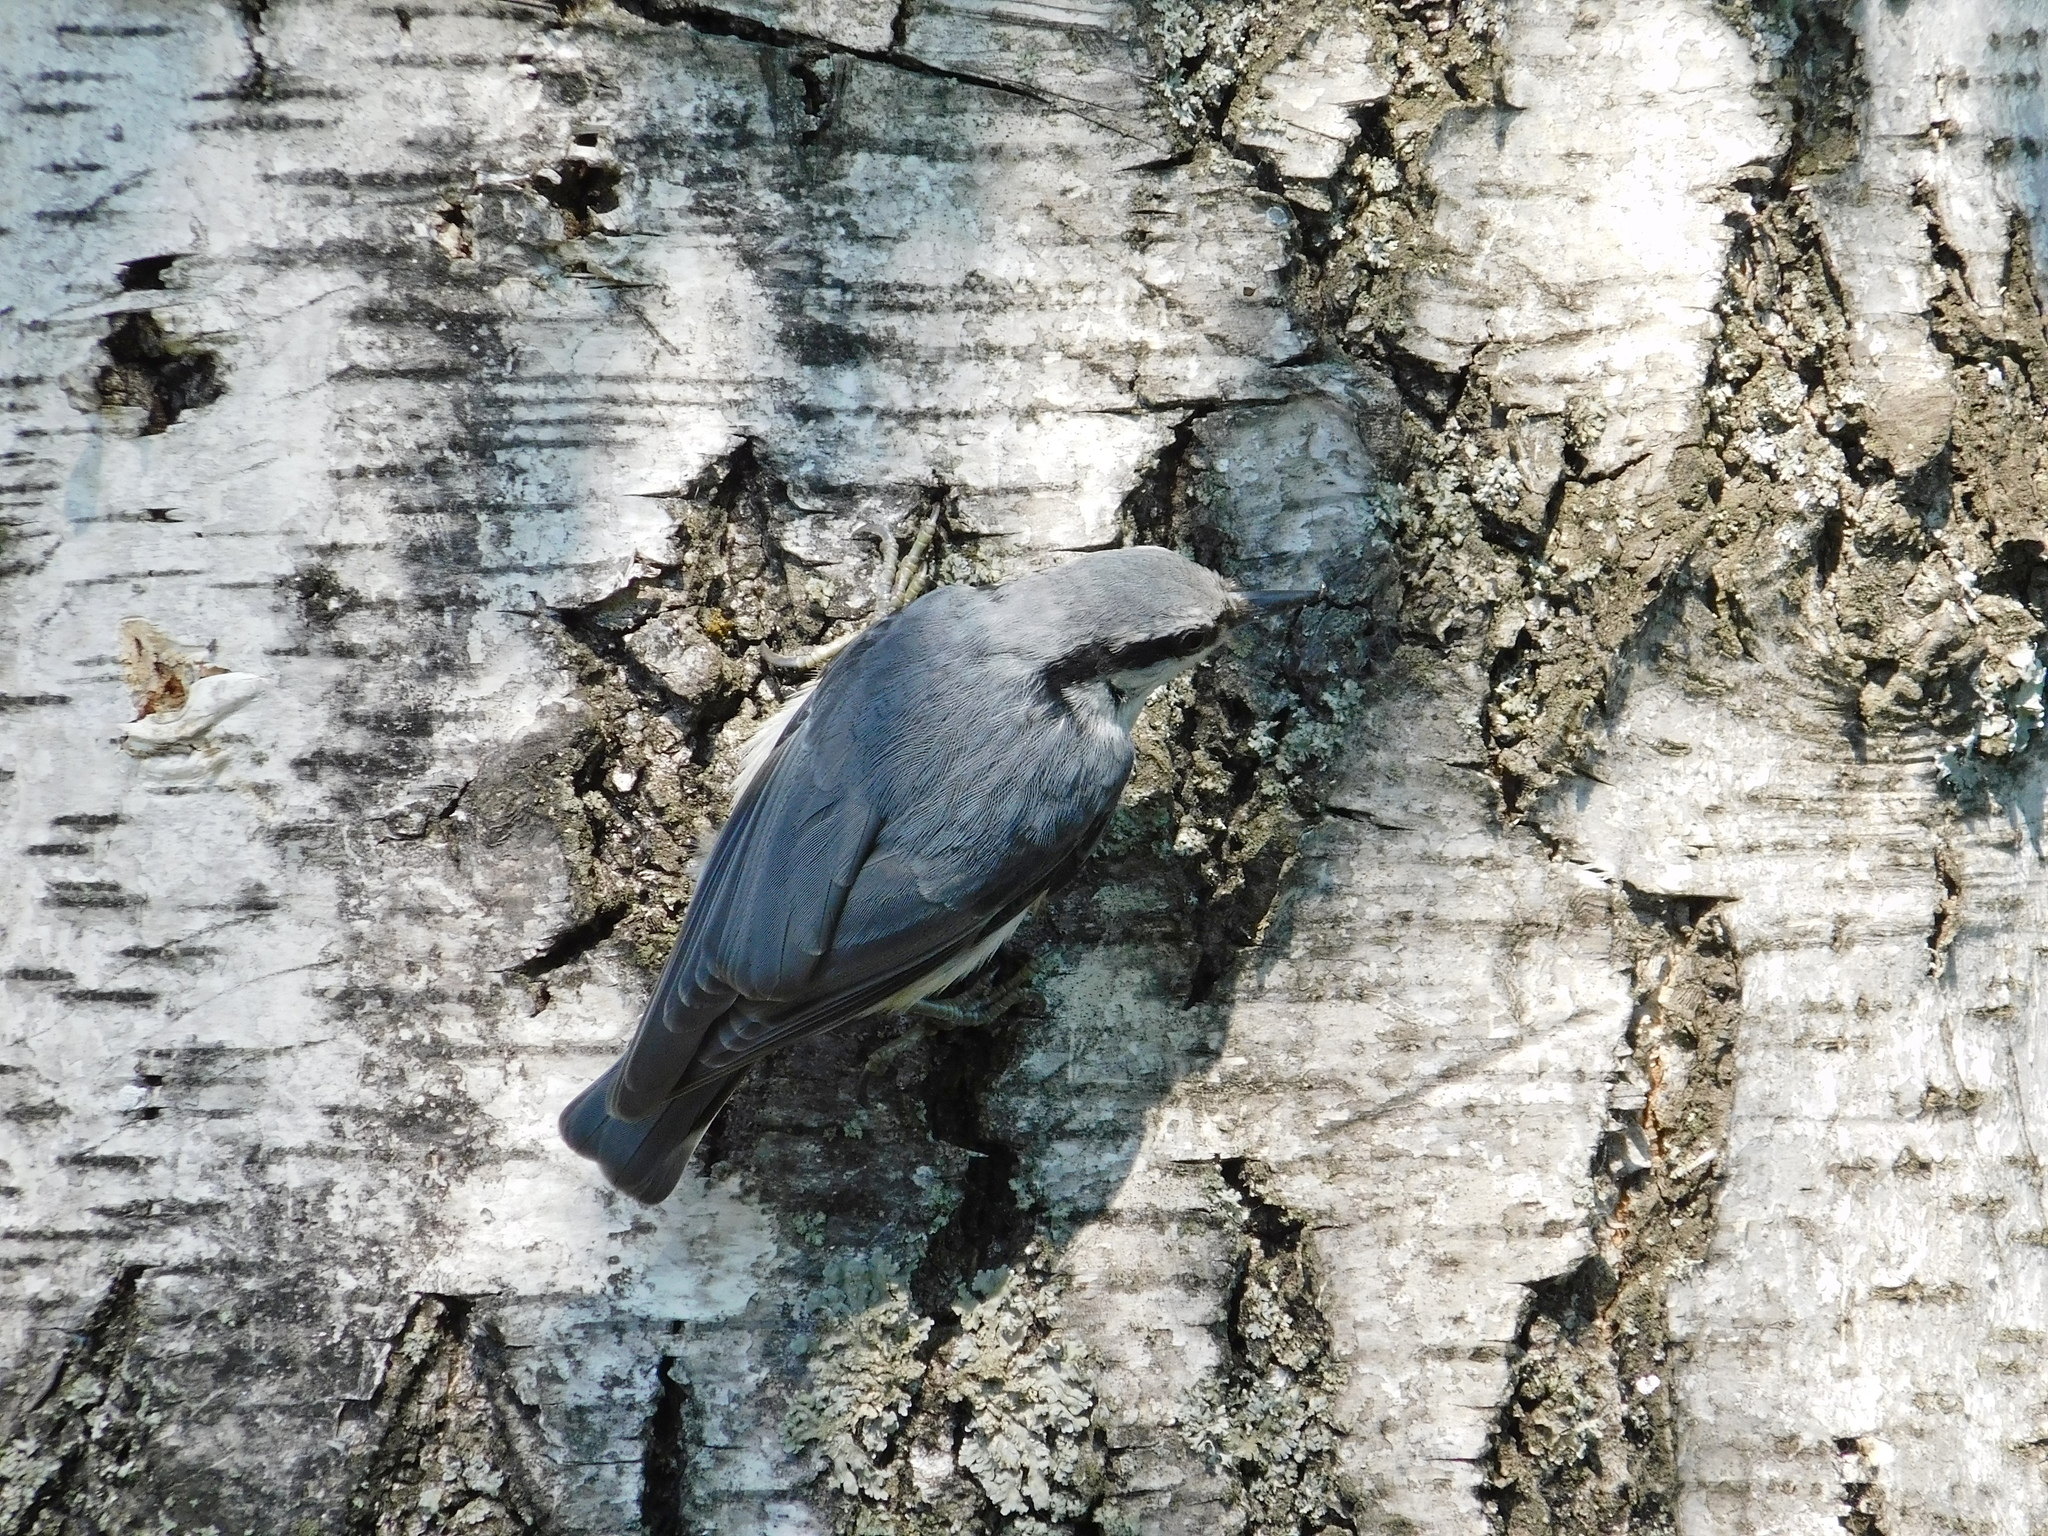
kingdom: Animalia
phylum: Chordata
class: Aves
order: Passeriformes
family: Sittidae
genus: Sitta
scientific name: Sitta europaea
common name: Eurasian nuthatch
